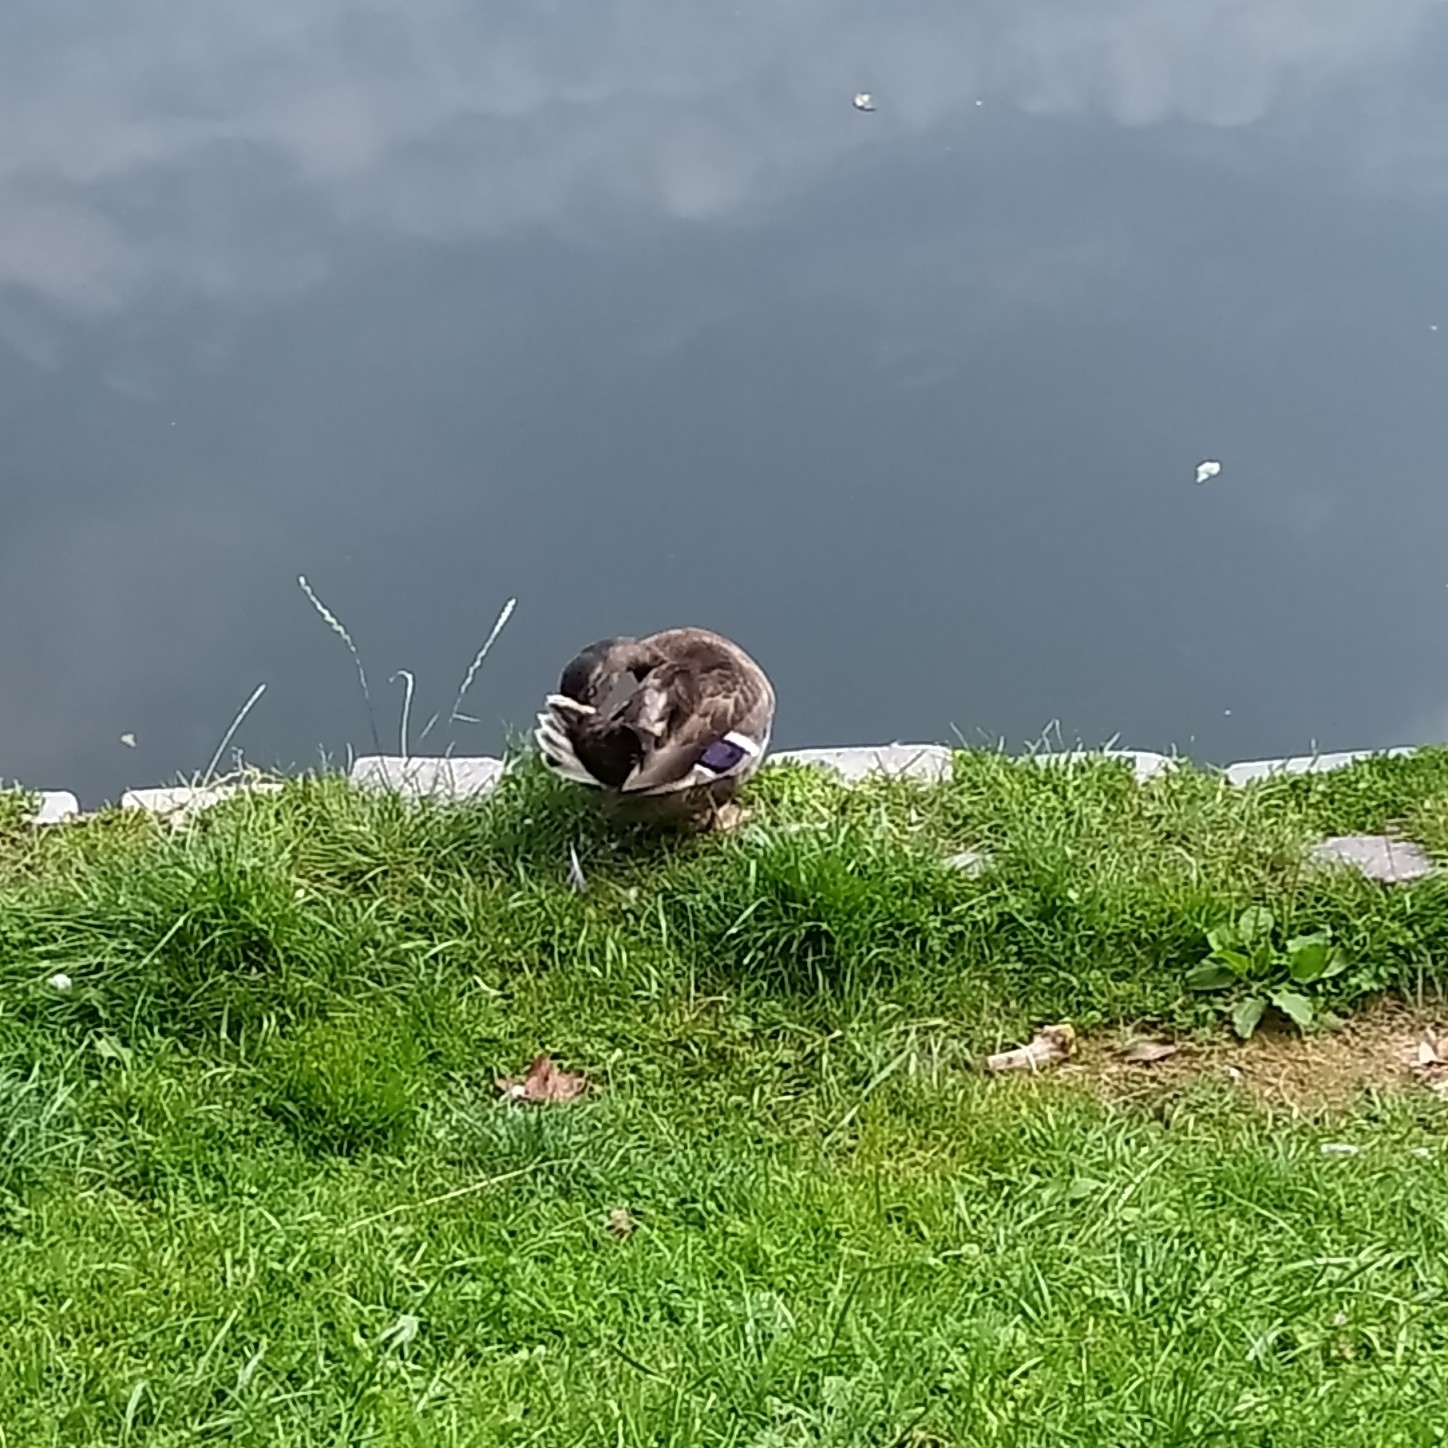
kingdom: Animalia
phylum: Chordata
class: Aves
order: Anseriformes
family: Anatidae
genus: Anas
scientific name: Anas platyrhynchos
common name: Mallard
